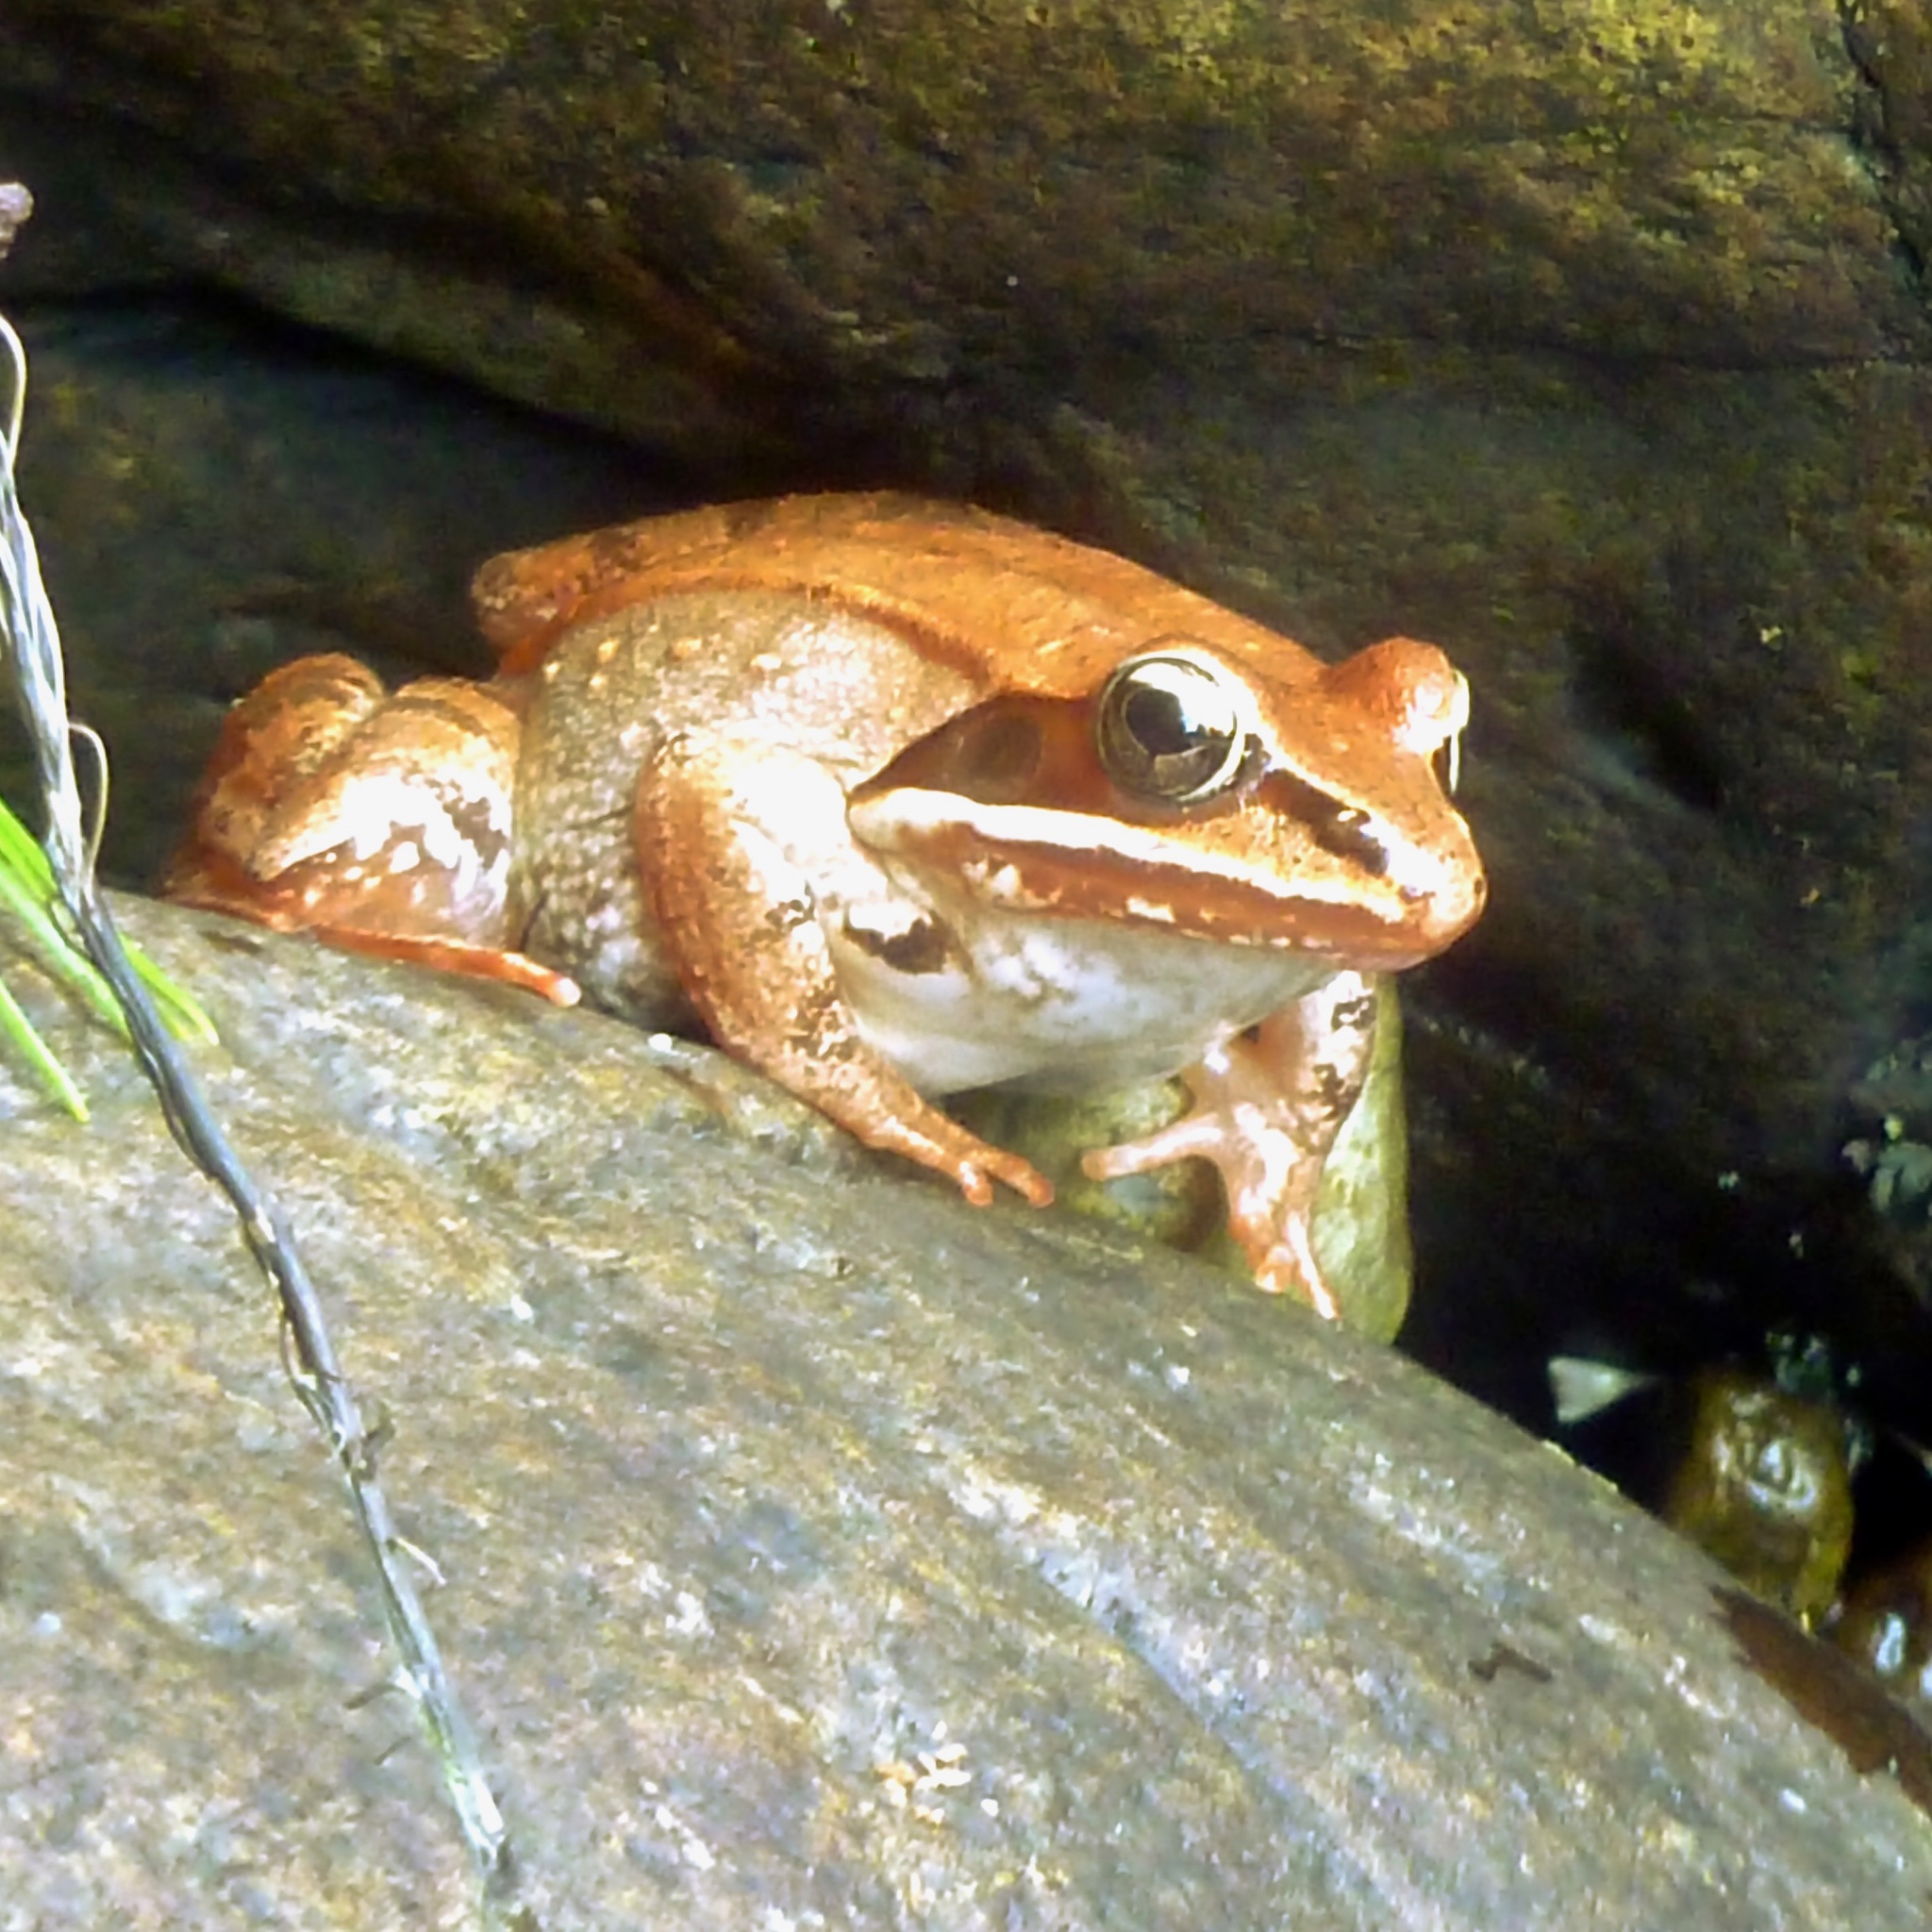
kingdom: Animalia
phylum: Chordata
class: Amphibia
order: Anura
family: Ranidae
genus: Lithobates
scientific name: Lithobates sylvaticus
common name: Wood frog
